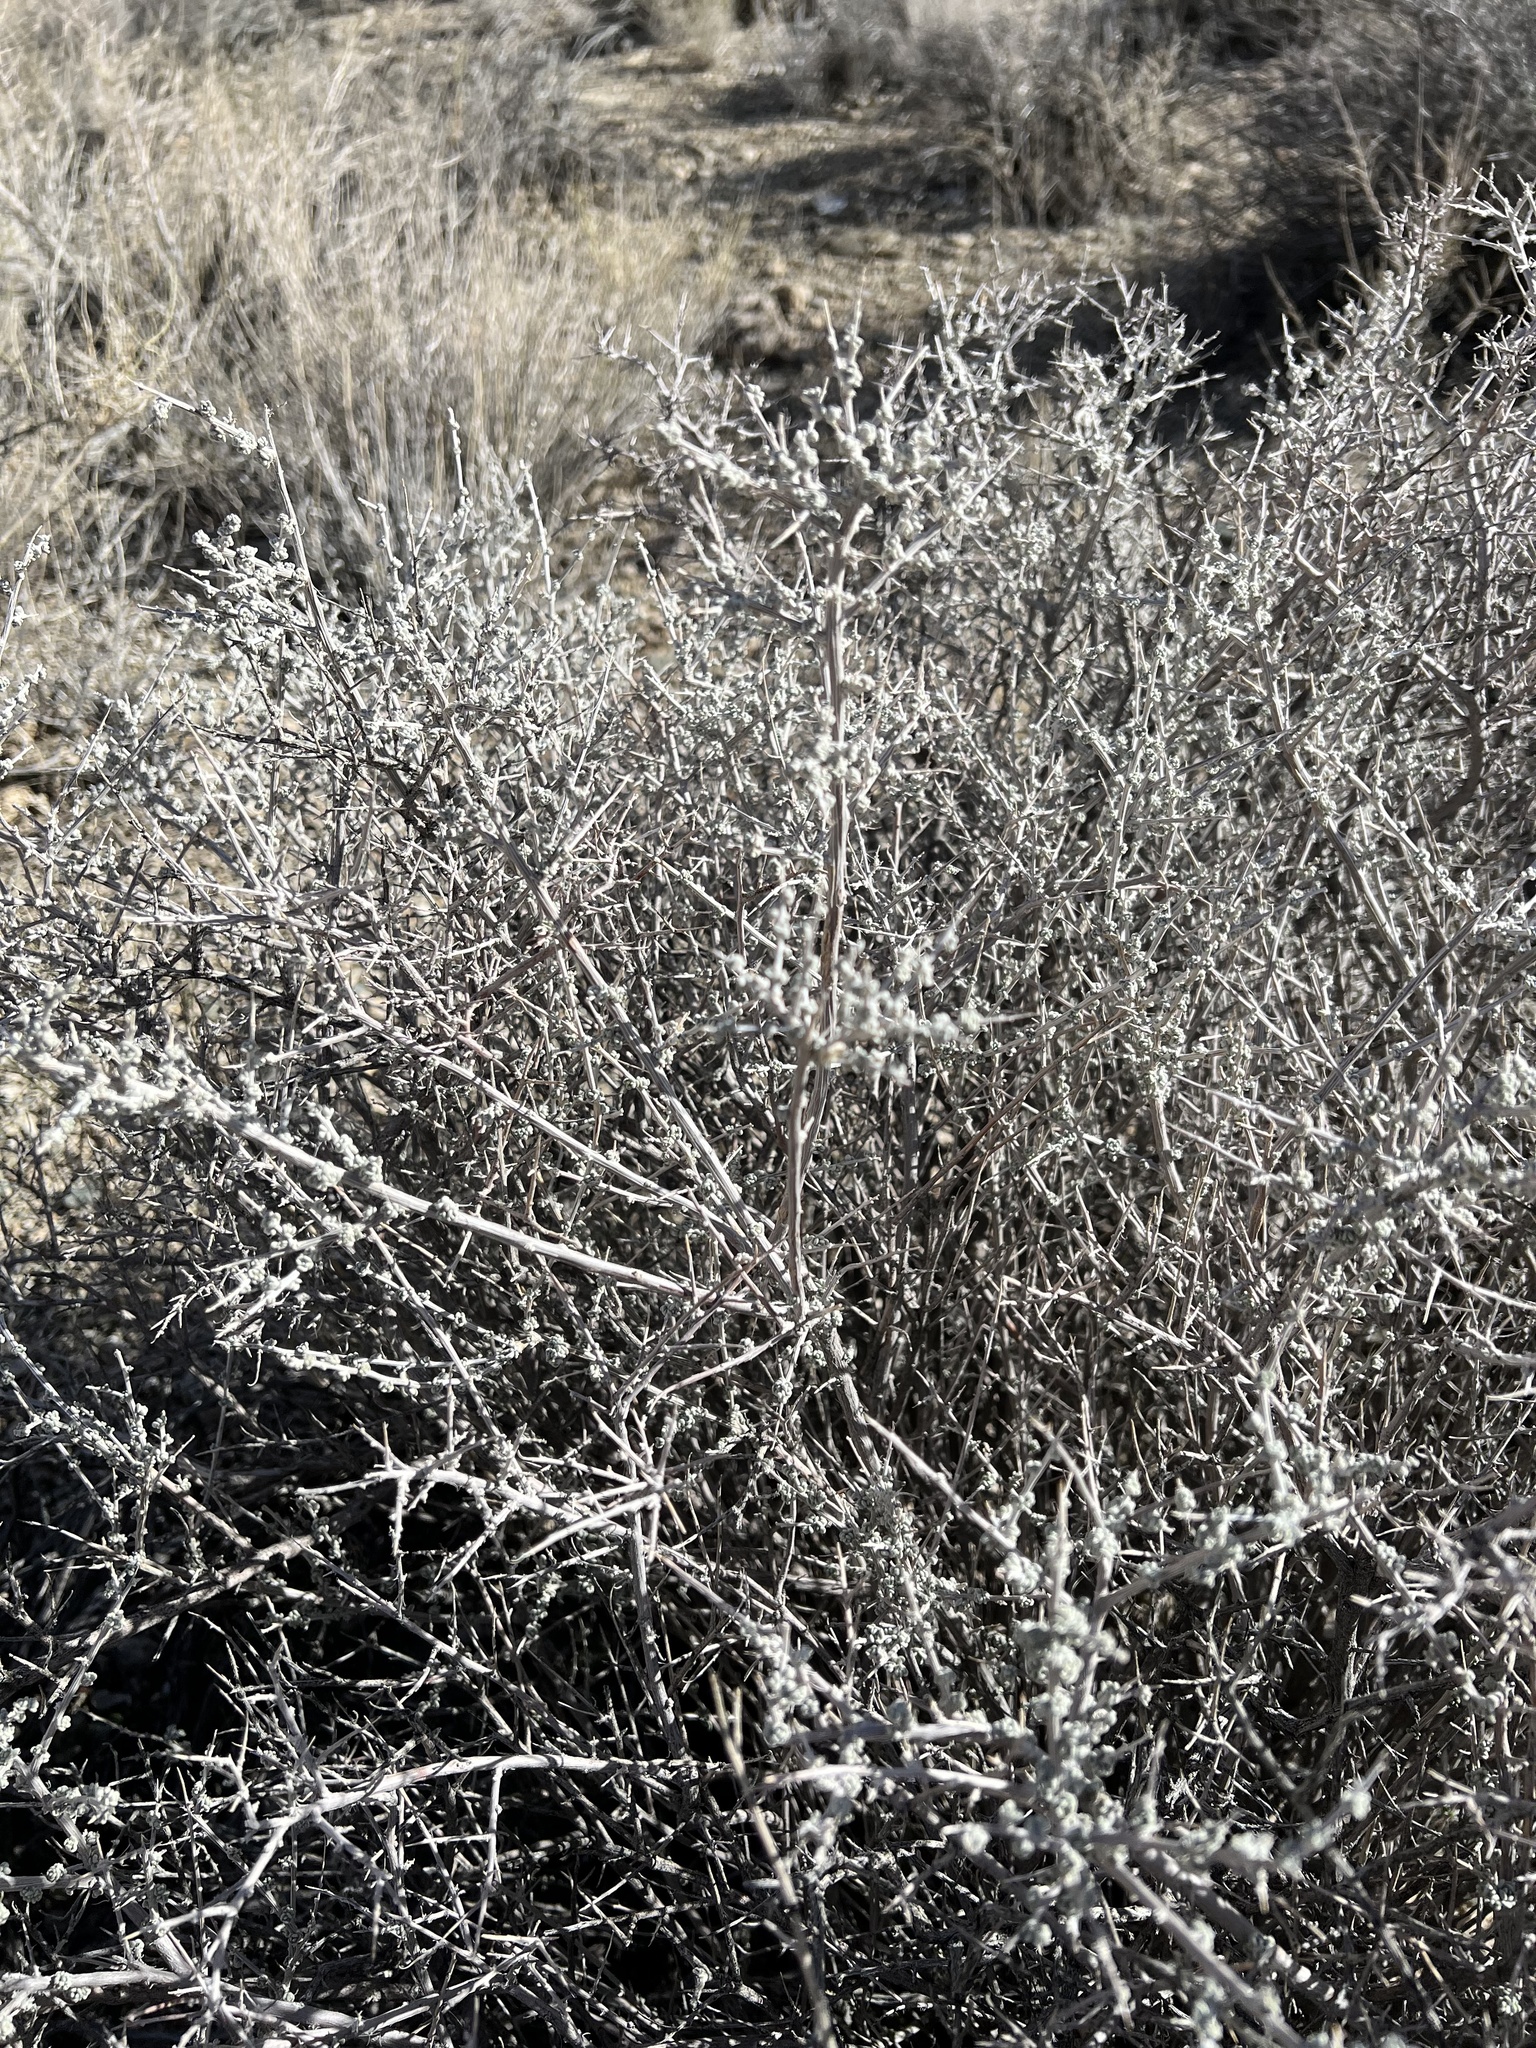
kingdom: Plantae
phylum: Tracheophyta
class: Magnoliopsida
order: Caryophyllales
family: Amaranthaceae
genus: Grayia
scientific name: Grayia spinosa
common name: Spiny hopsage
